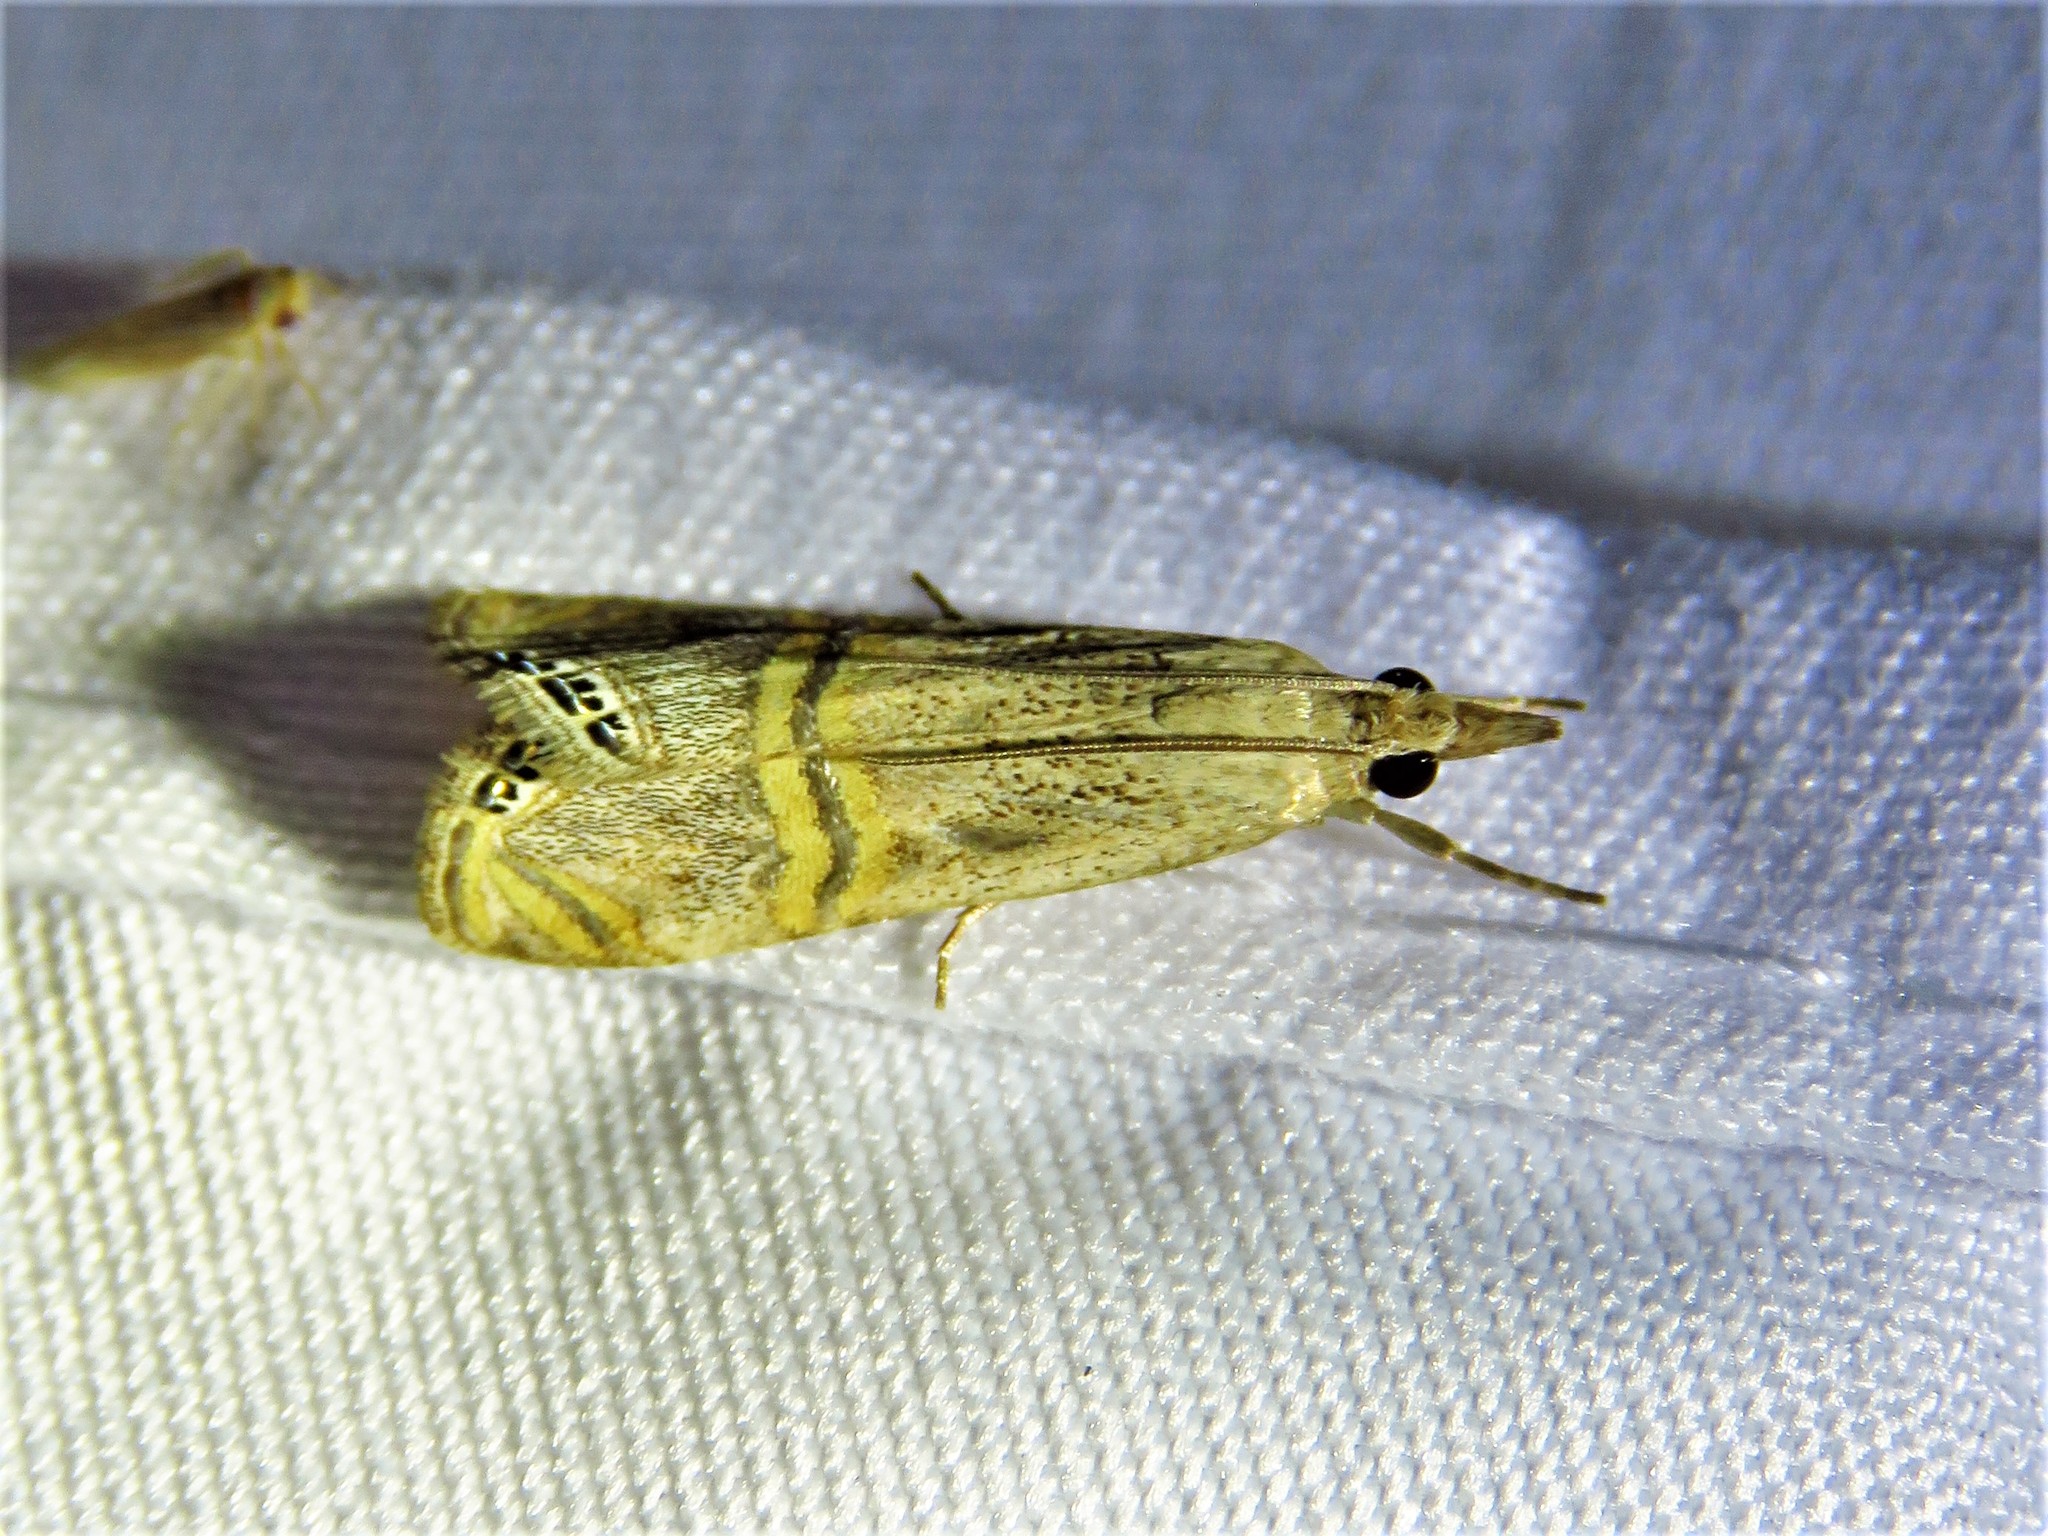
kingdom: Animalia
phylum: Arthropoda
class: Insecta
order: Lepidoptera
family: Crambidae
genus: Euchromius
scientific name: Euchromius ocellea
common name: Necklace veneer moth
